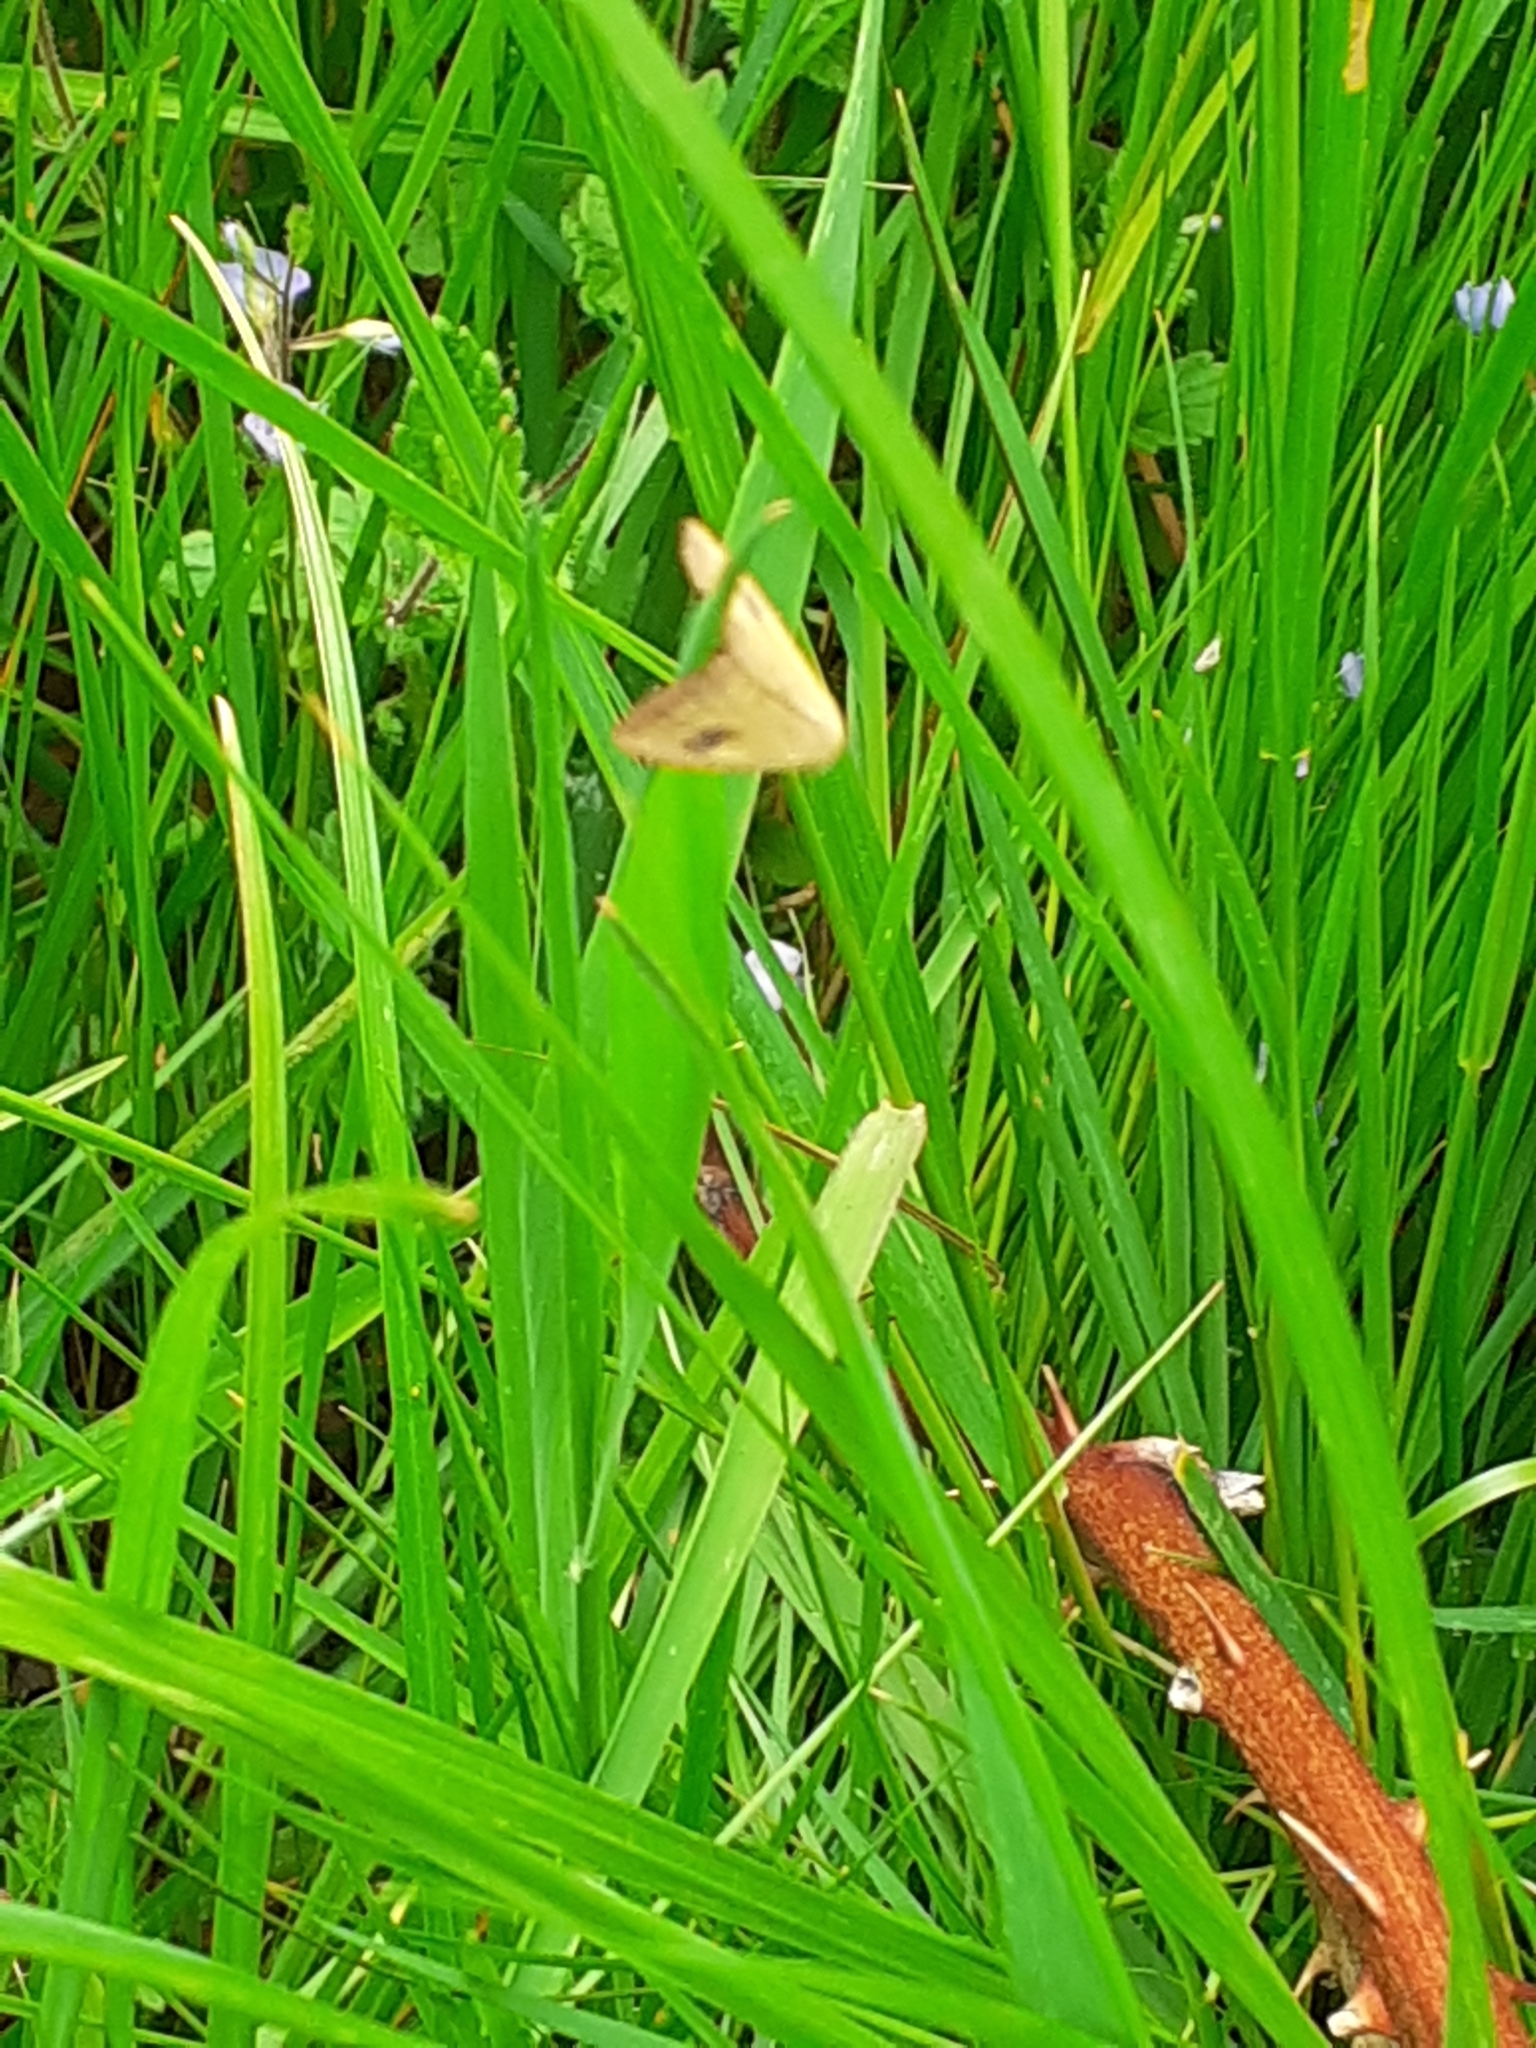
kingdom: Animalia
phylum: Arthropoda
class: Insecta
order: Lepidoptera
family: Erebidae
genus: Rivula
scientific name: Rivula sericealis
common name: Straw dot
